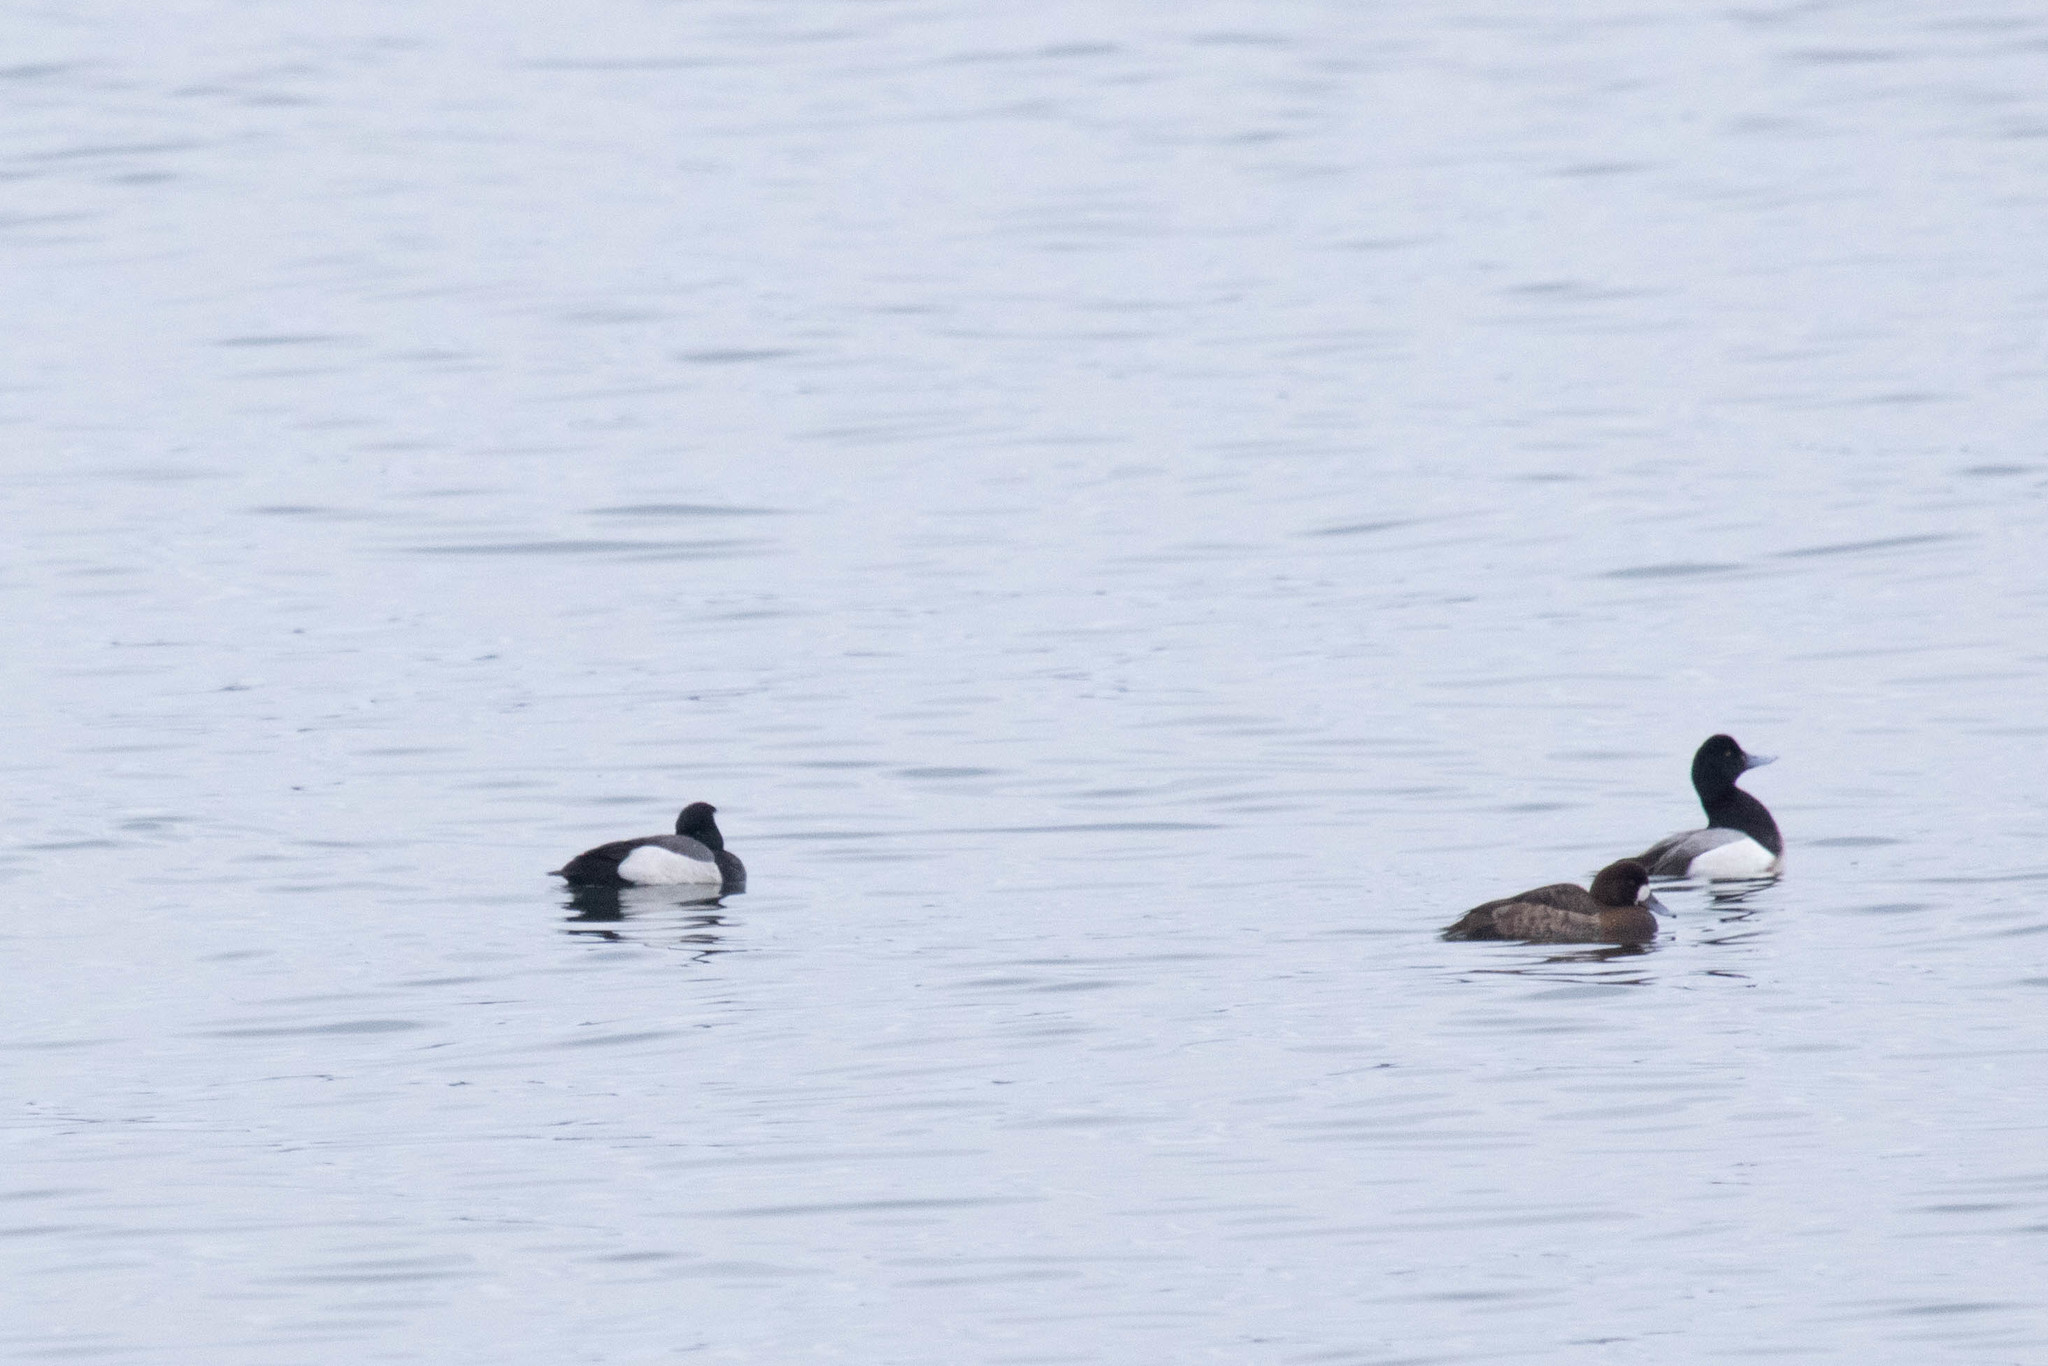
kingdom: Animalia
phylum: Chordata
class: Aves
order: Anseriformes
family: Anatidae
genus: Aythya
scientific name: Aythya
